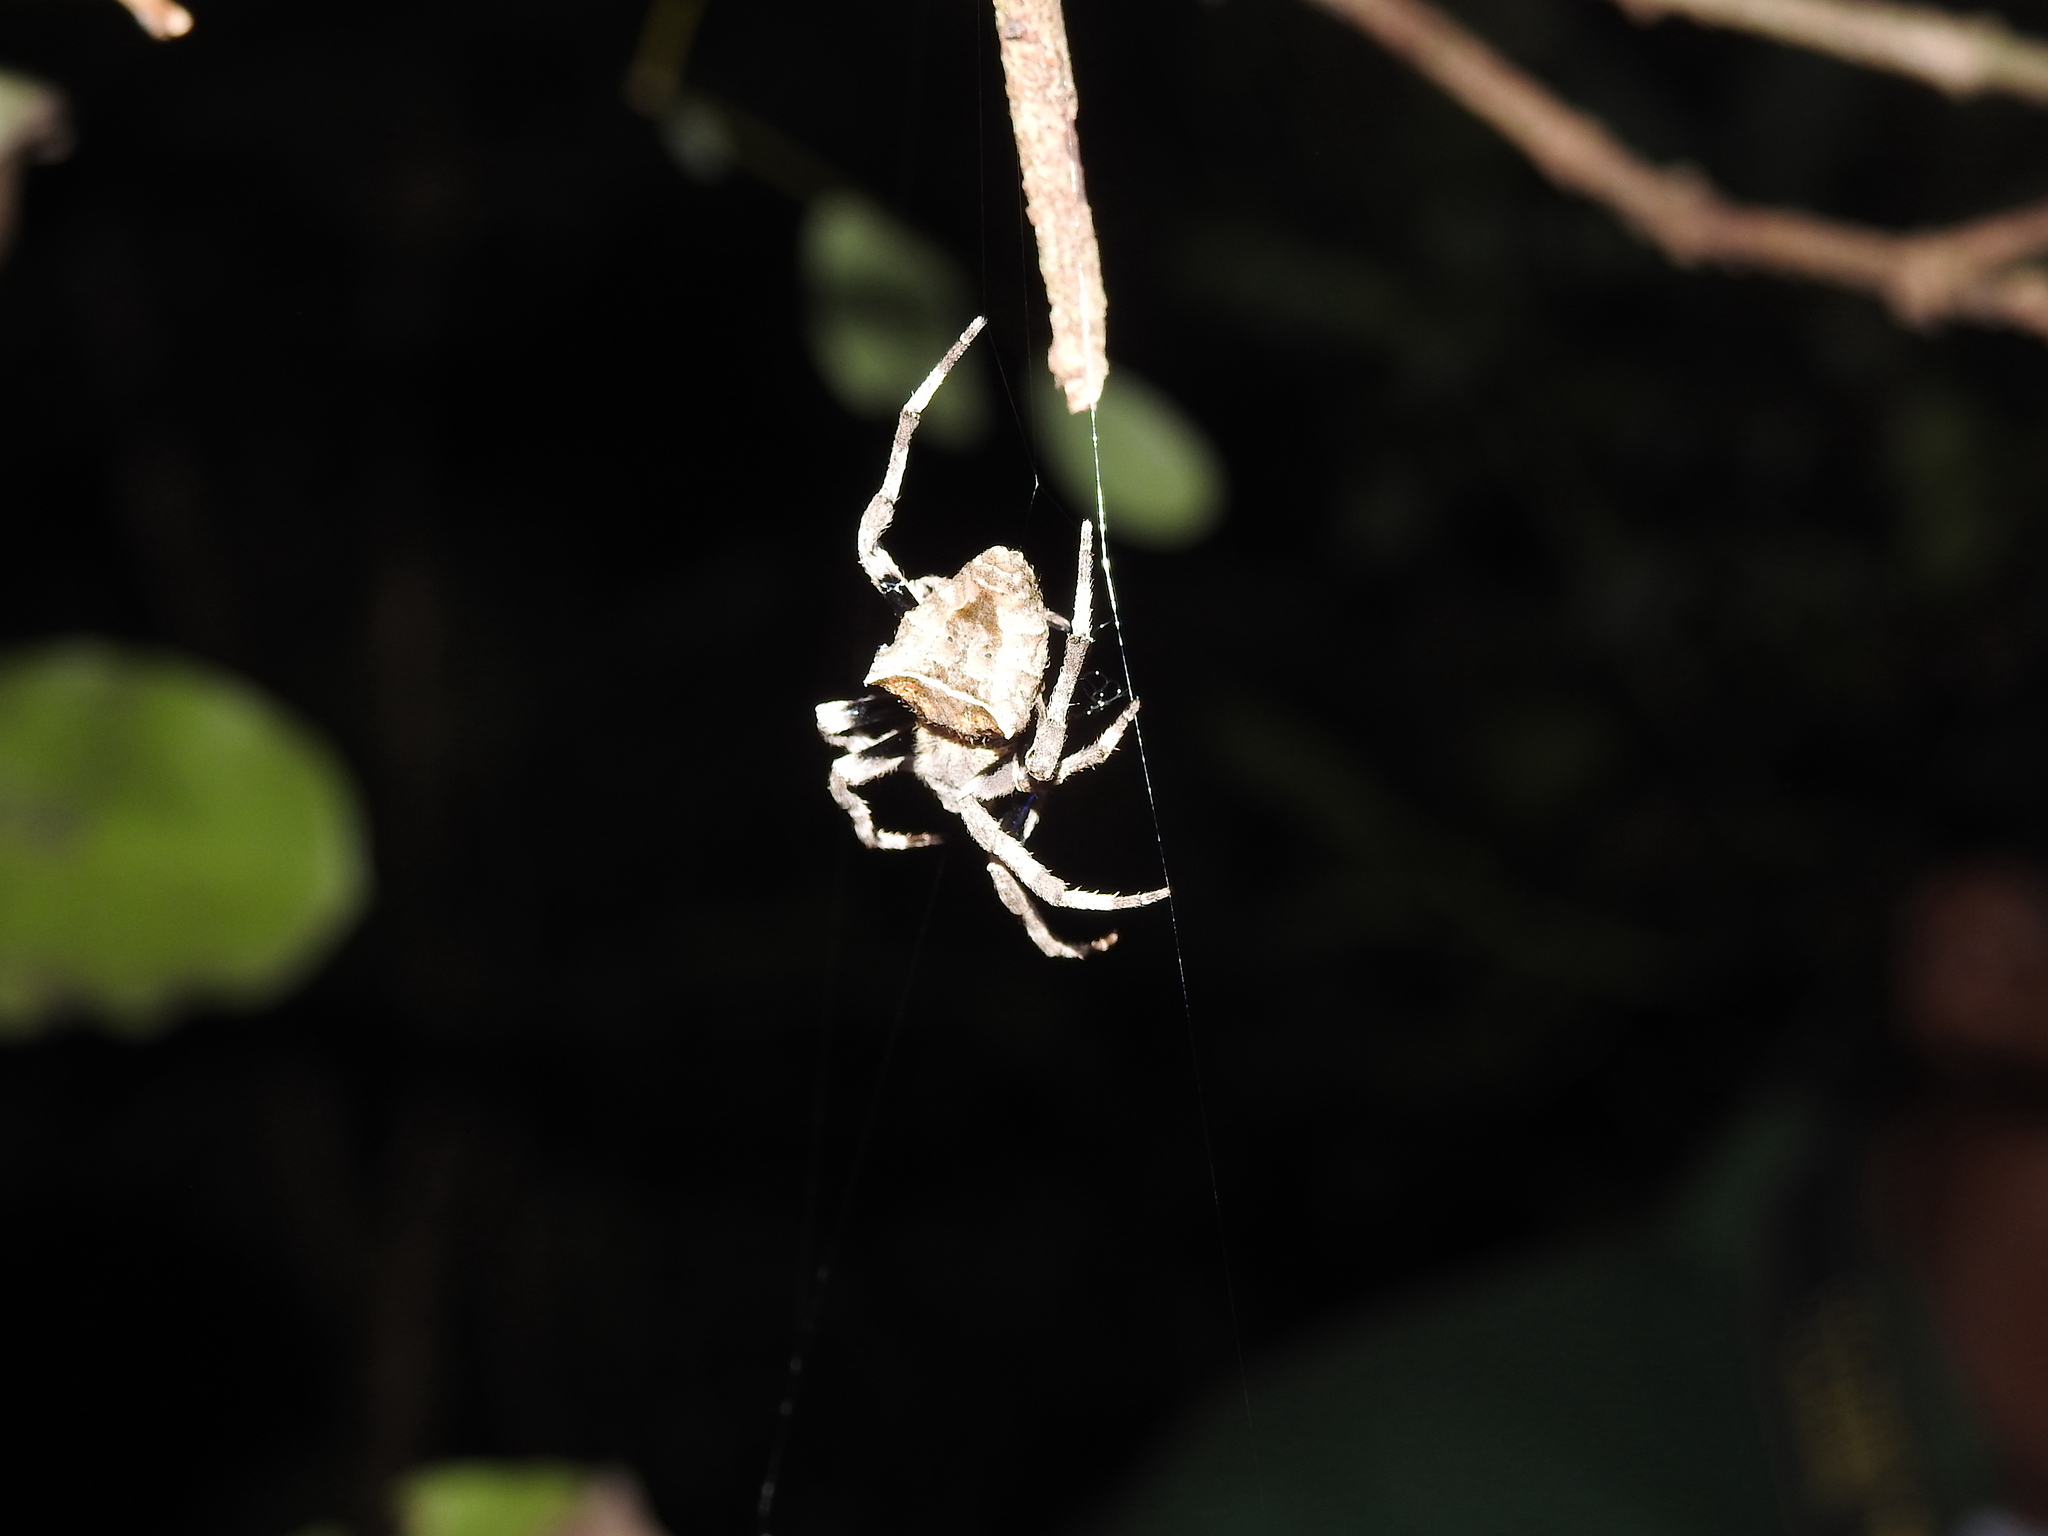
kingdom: Animalia
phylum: Arthropoda
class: Arachnida
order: Araneae
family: Araneidae
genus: Parawixia
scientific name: Parawixia dehaani
